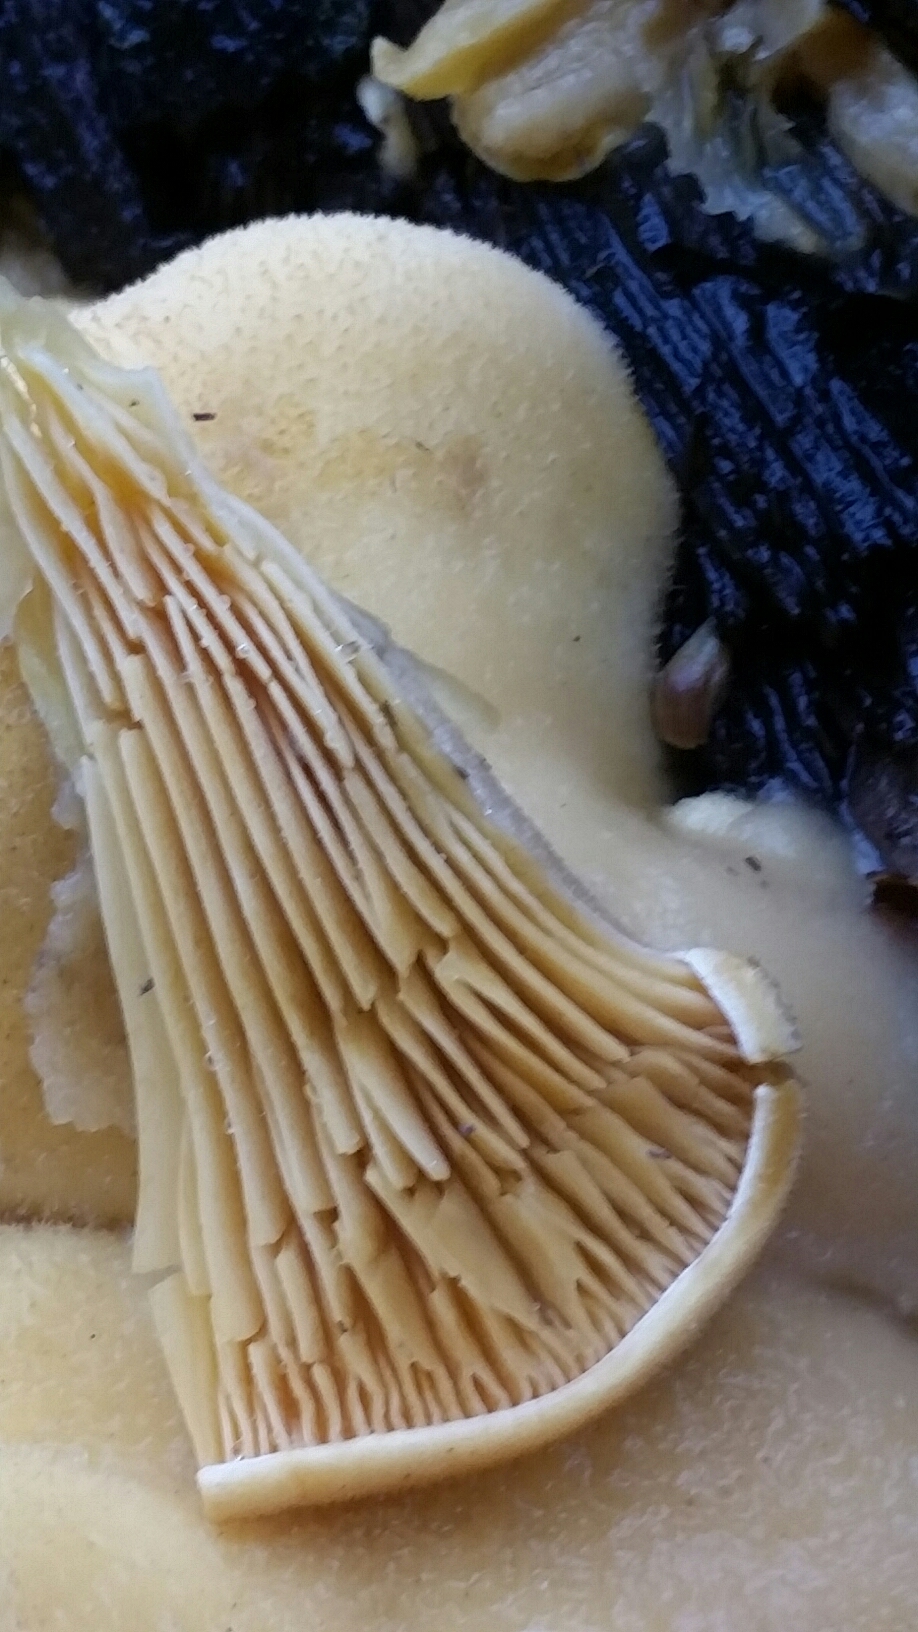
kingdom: Fungi
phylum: Basidiomycota
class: Agaricomycetes
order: Agaricales
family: Phyllotopsidaceae
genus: Phyllotopsis
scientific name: Phyllotopsis nidulans
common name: Orange mock oyster
